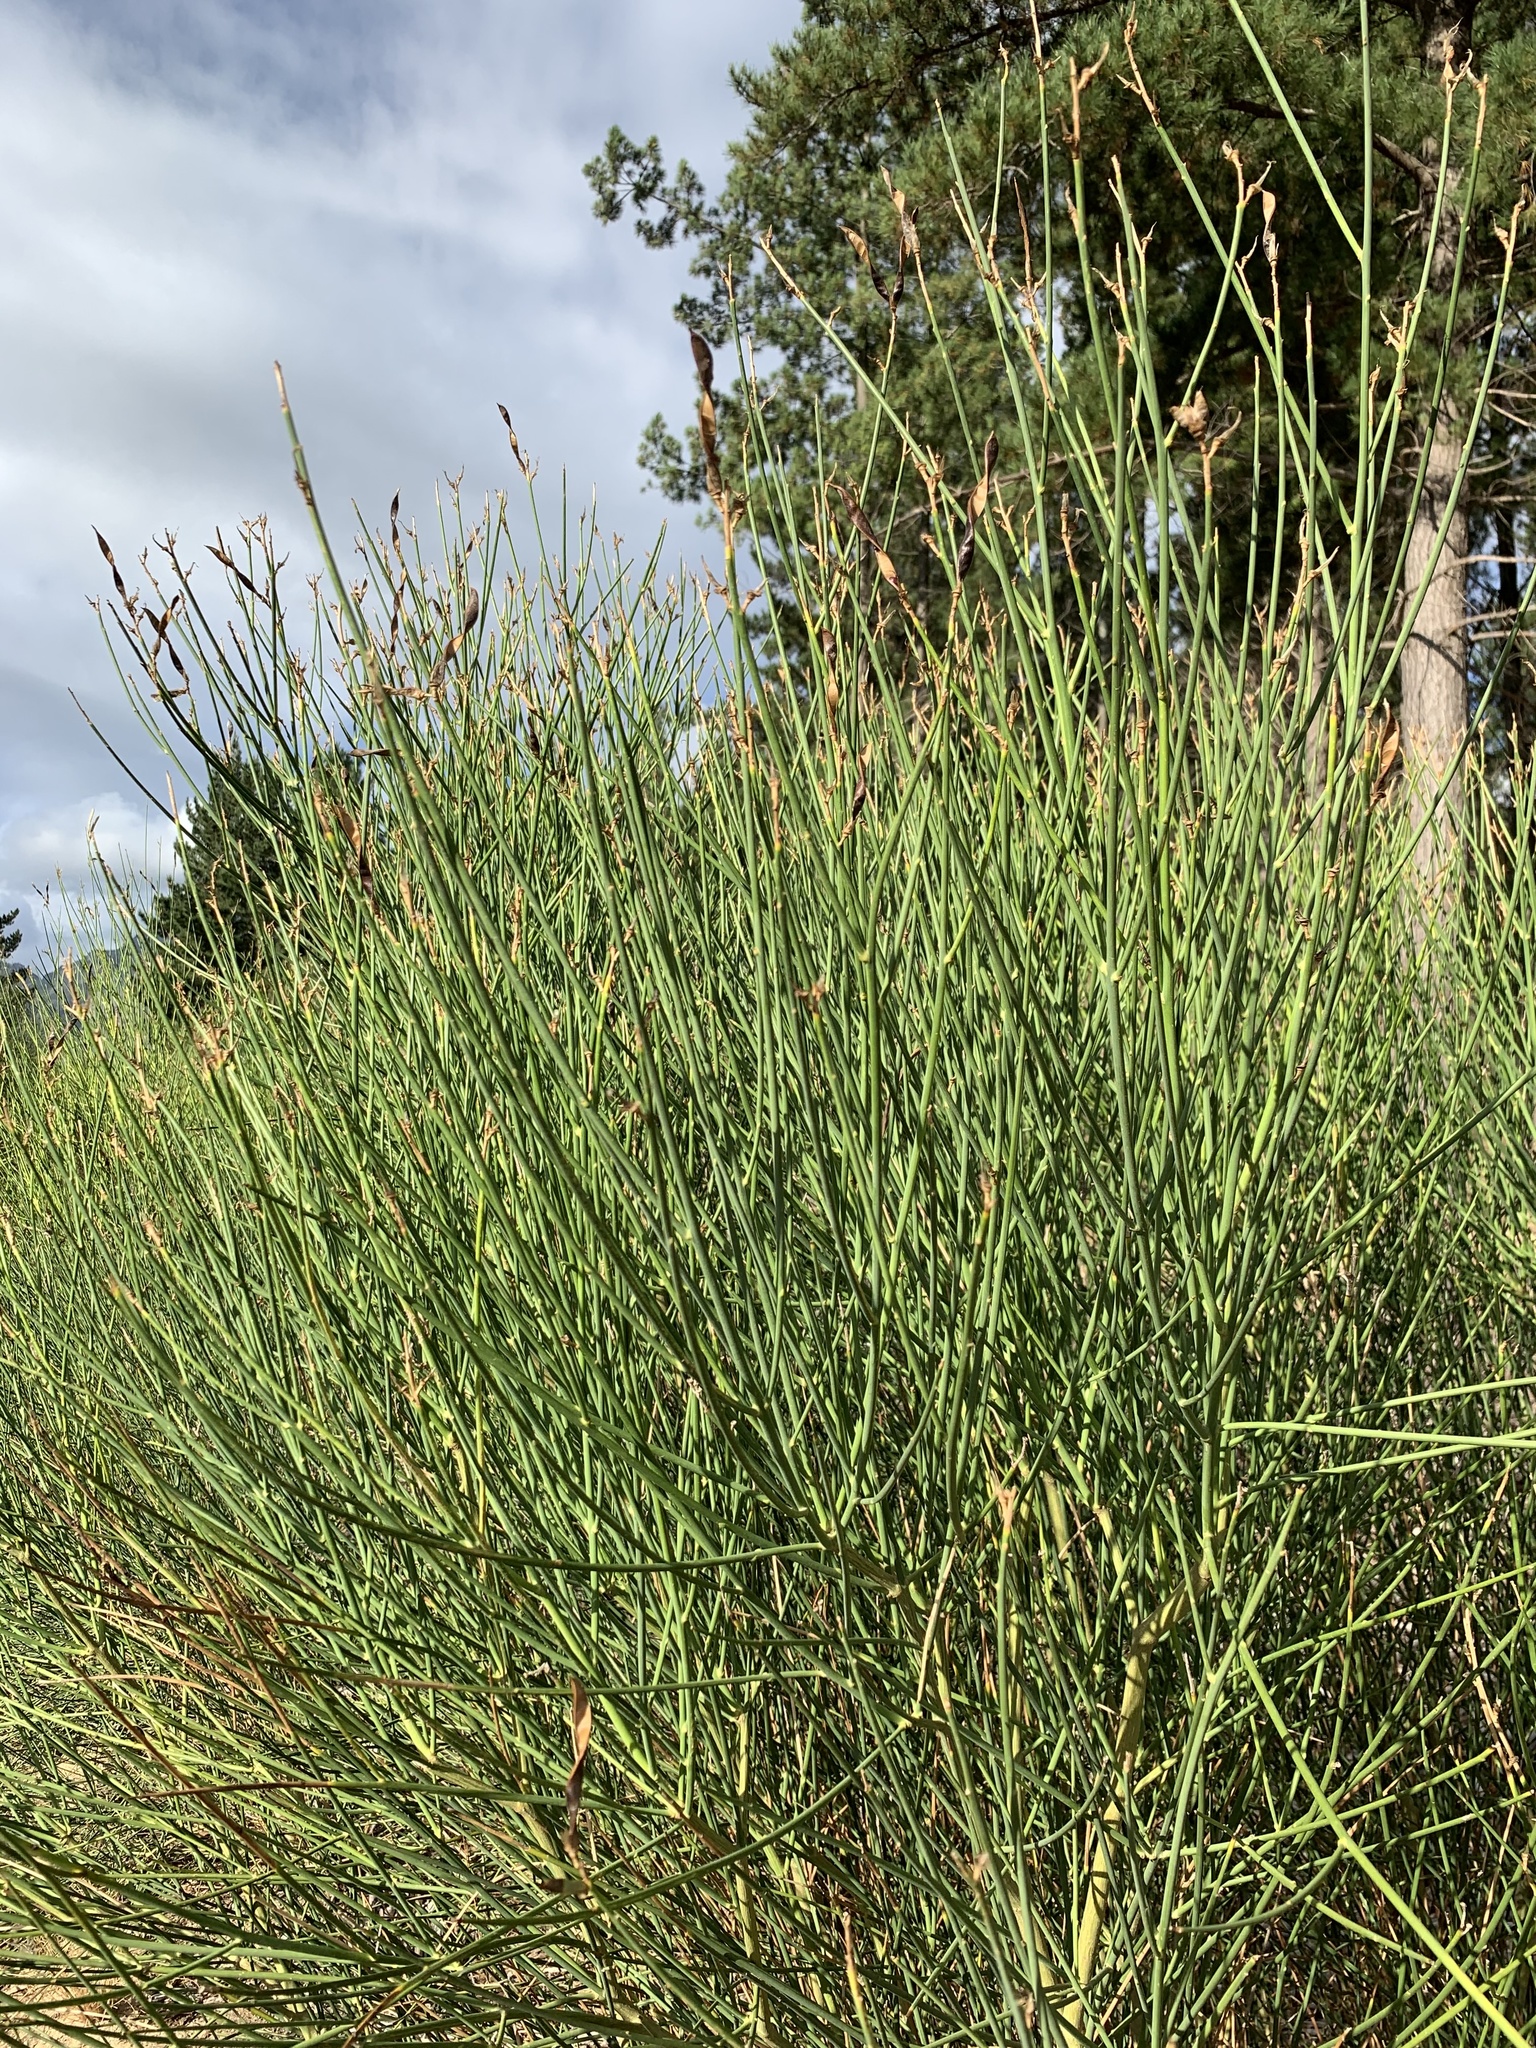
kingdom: Plantae
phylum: Tracheophyta
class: Magnoliopsida
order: Fabales
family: Fabaceae
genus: Spartium
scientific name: Spartium junceum
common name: Spanish broom
